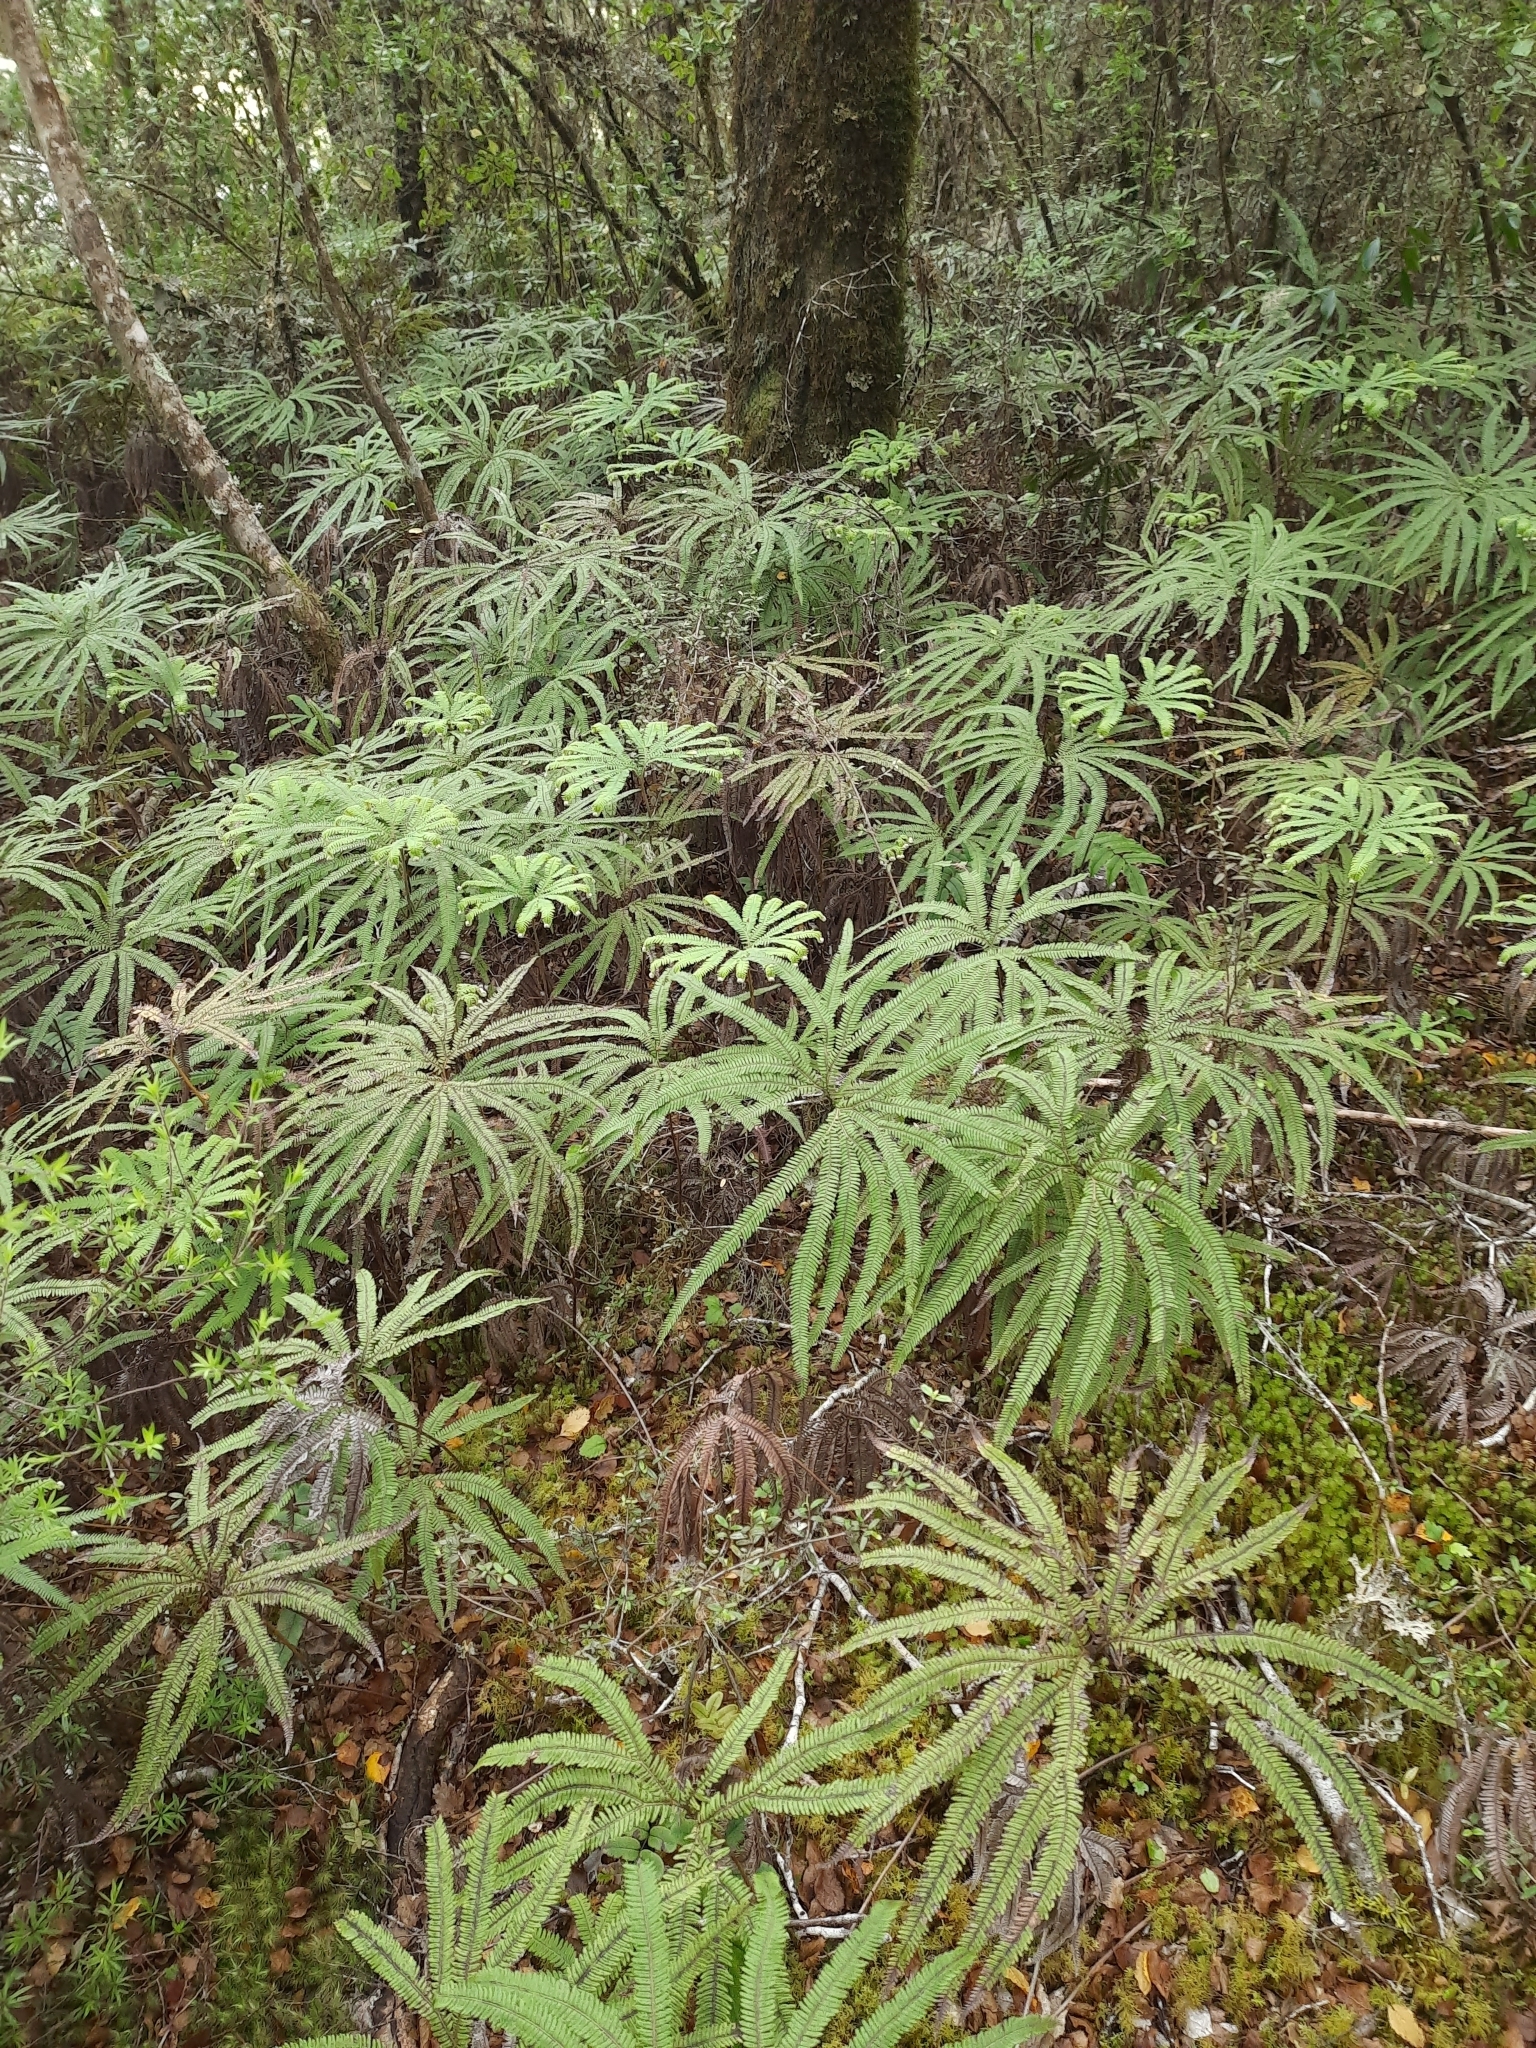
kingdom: Plantae
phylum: Tracheophyta
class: Polypodiopsida
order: Gleicheniales
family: Gleicheniaceae
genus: Sticherus
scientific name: Sticherus cunninghamii
